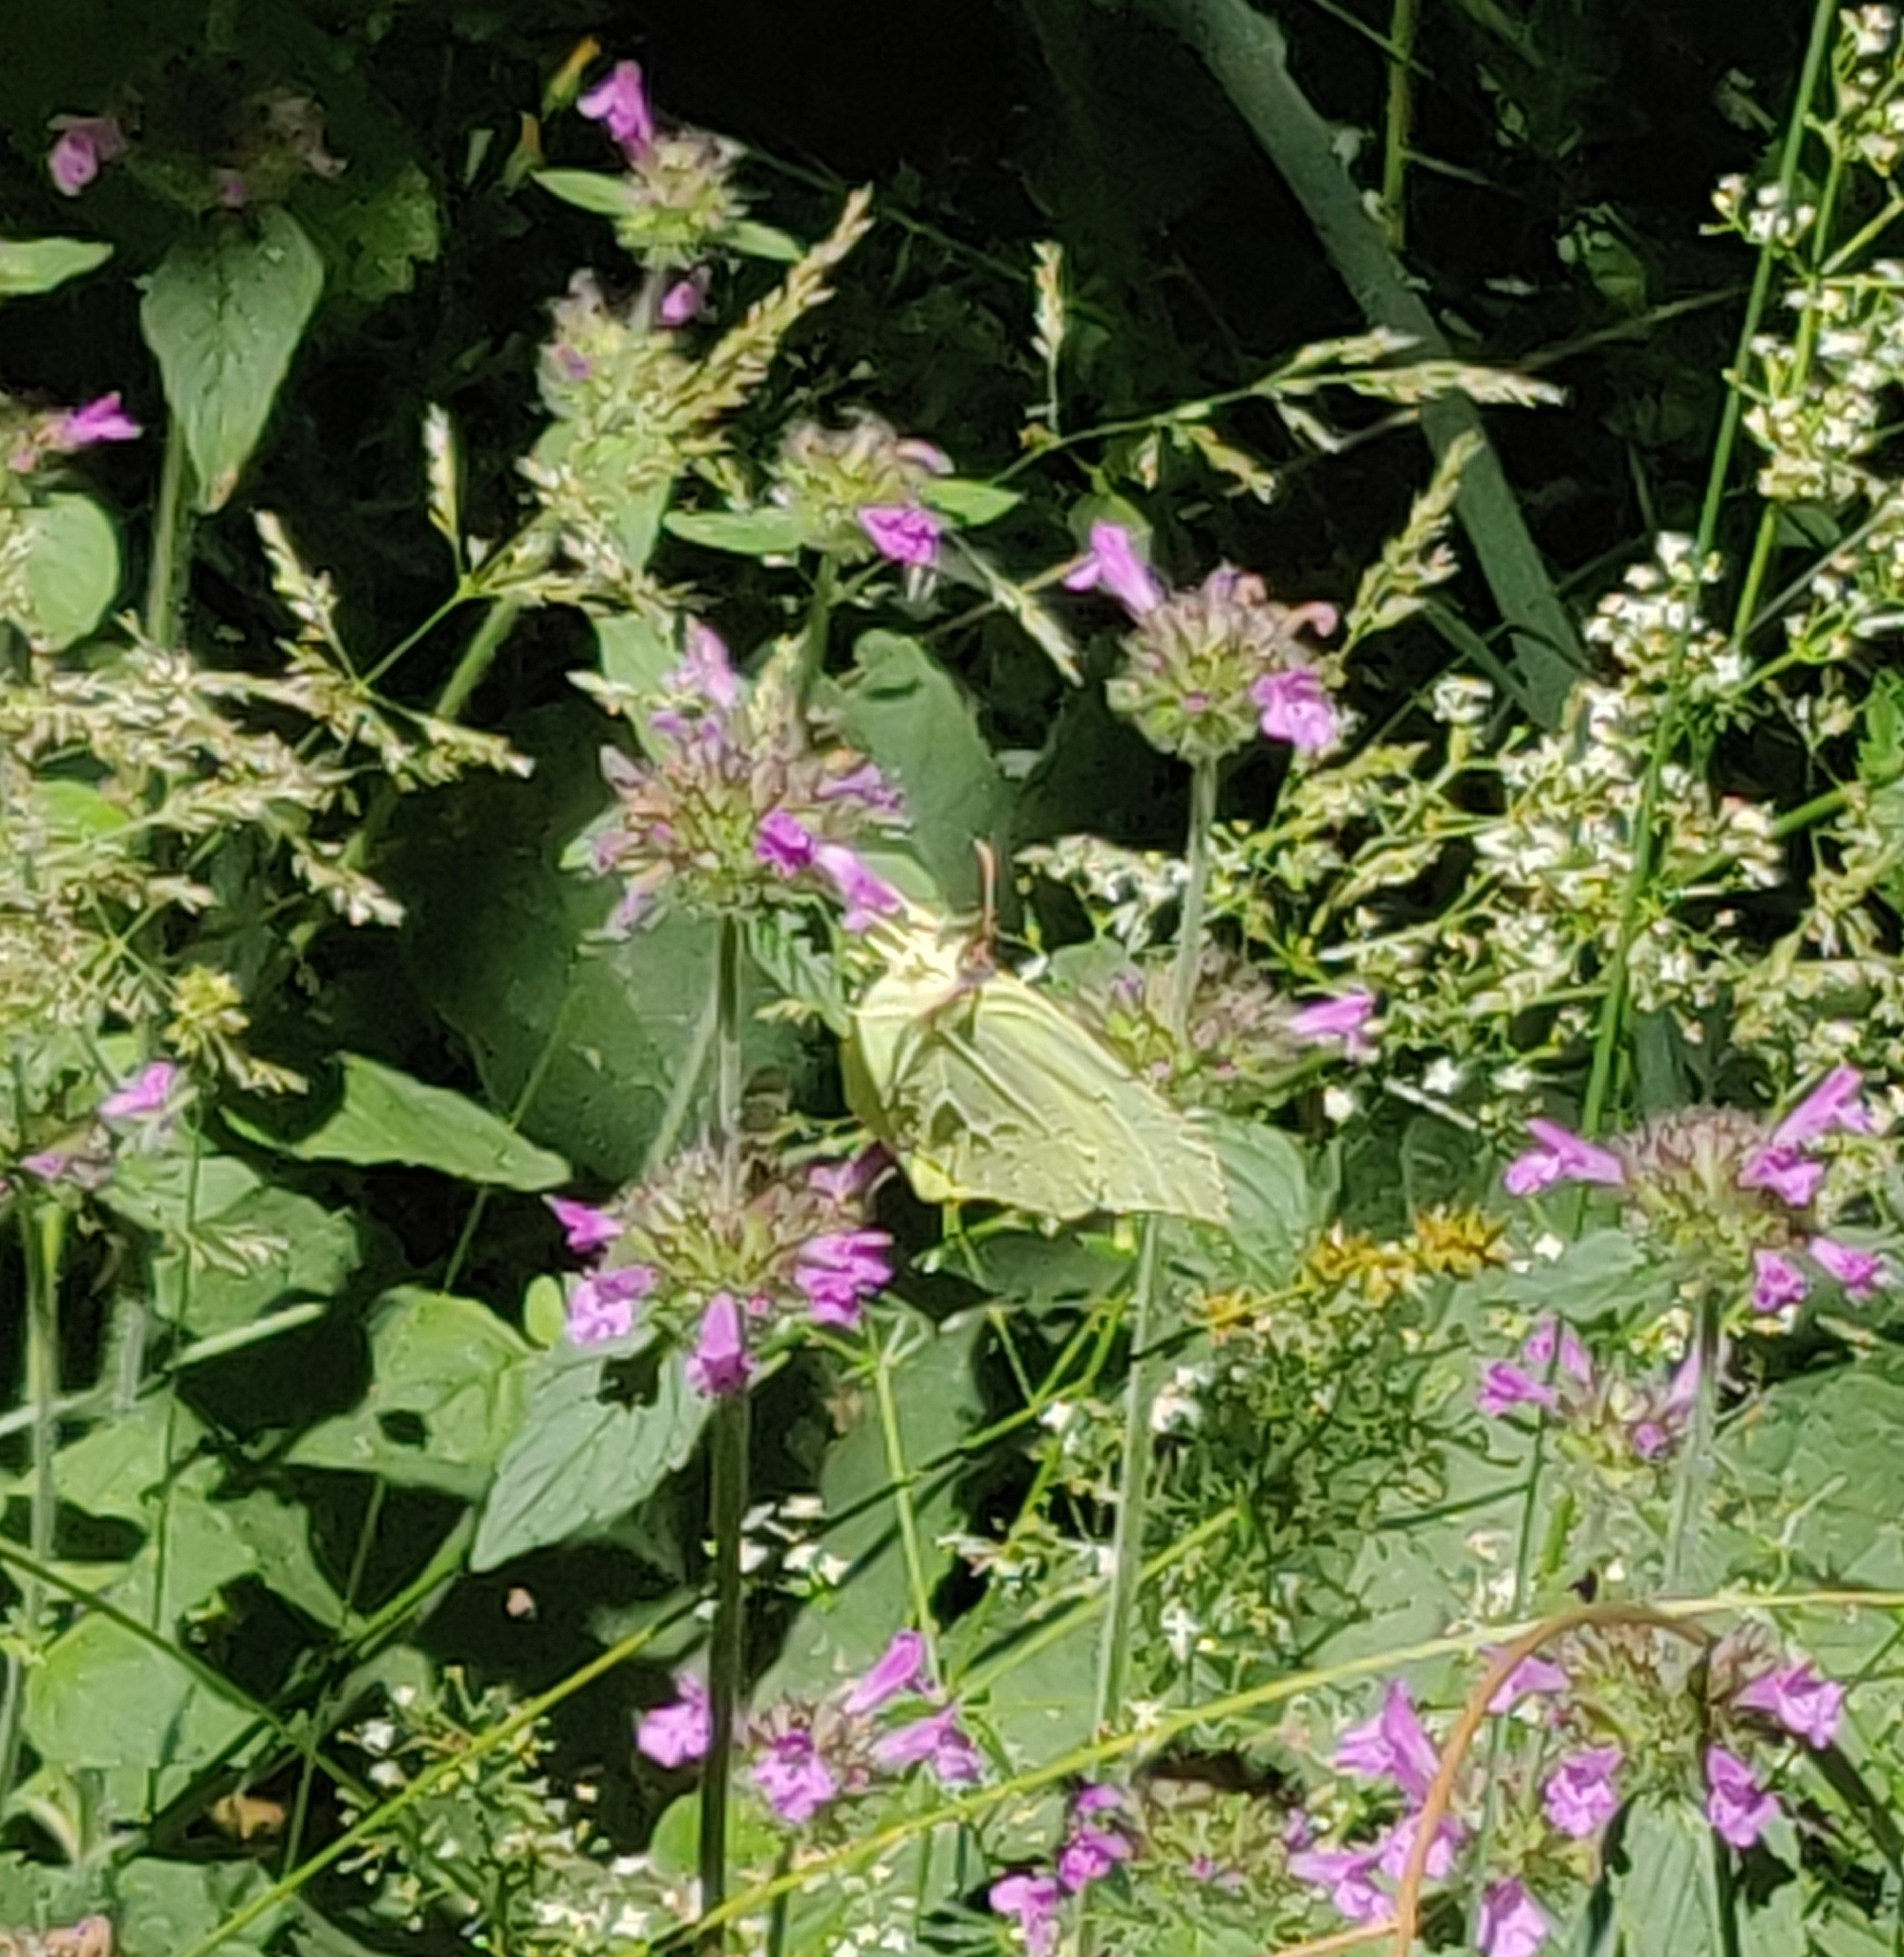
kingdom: Animalia
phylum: Arthropoda
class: Insecta
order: Lepidoptera
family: Pieridae
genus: Gonepteryx
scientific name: Gonepteryx rhamni
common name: Brimstone
